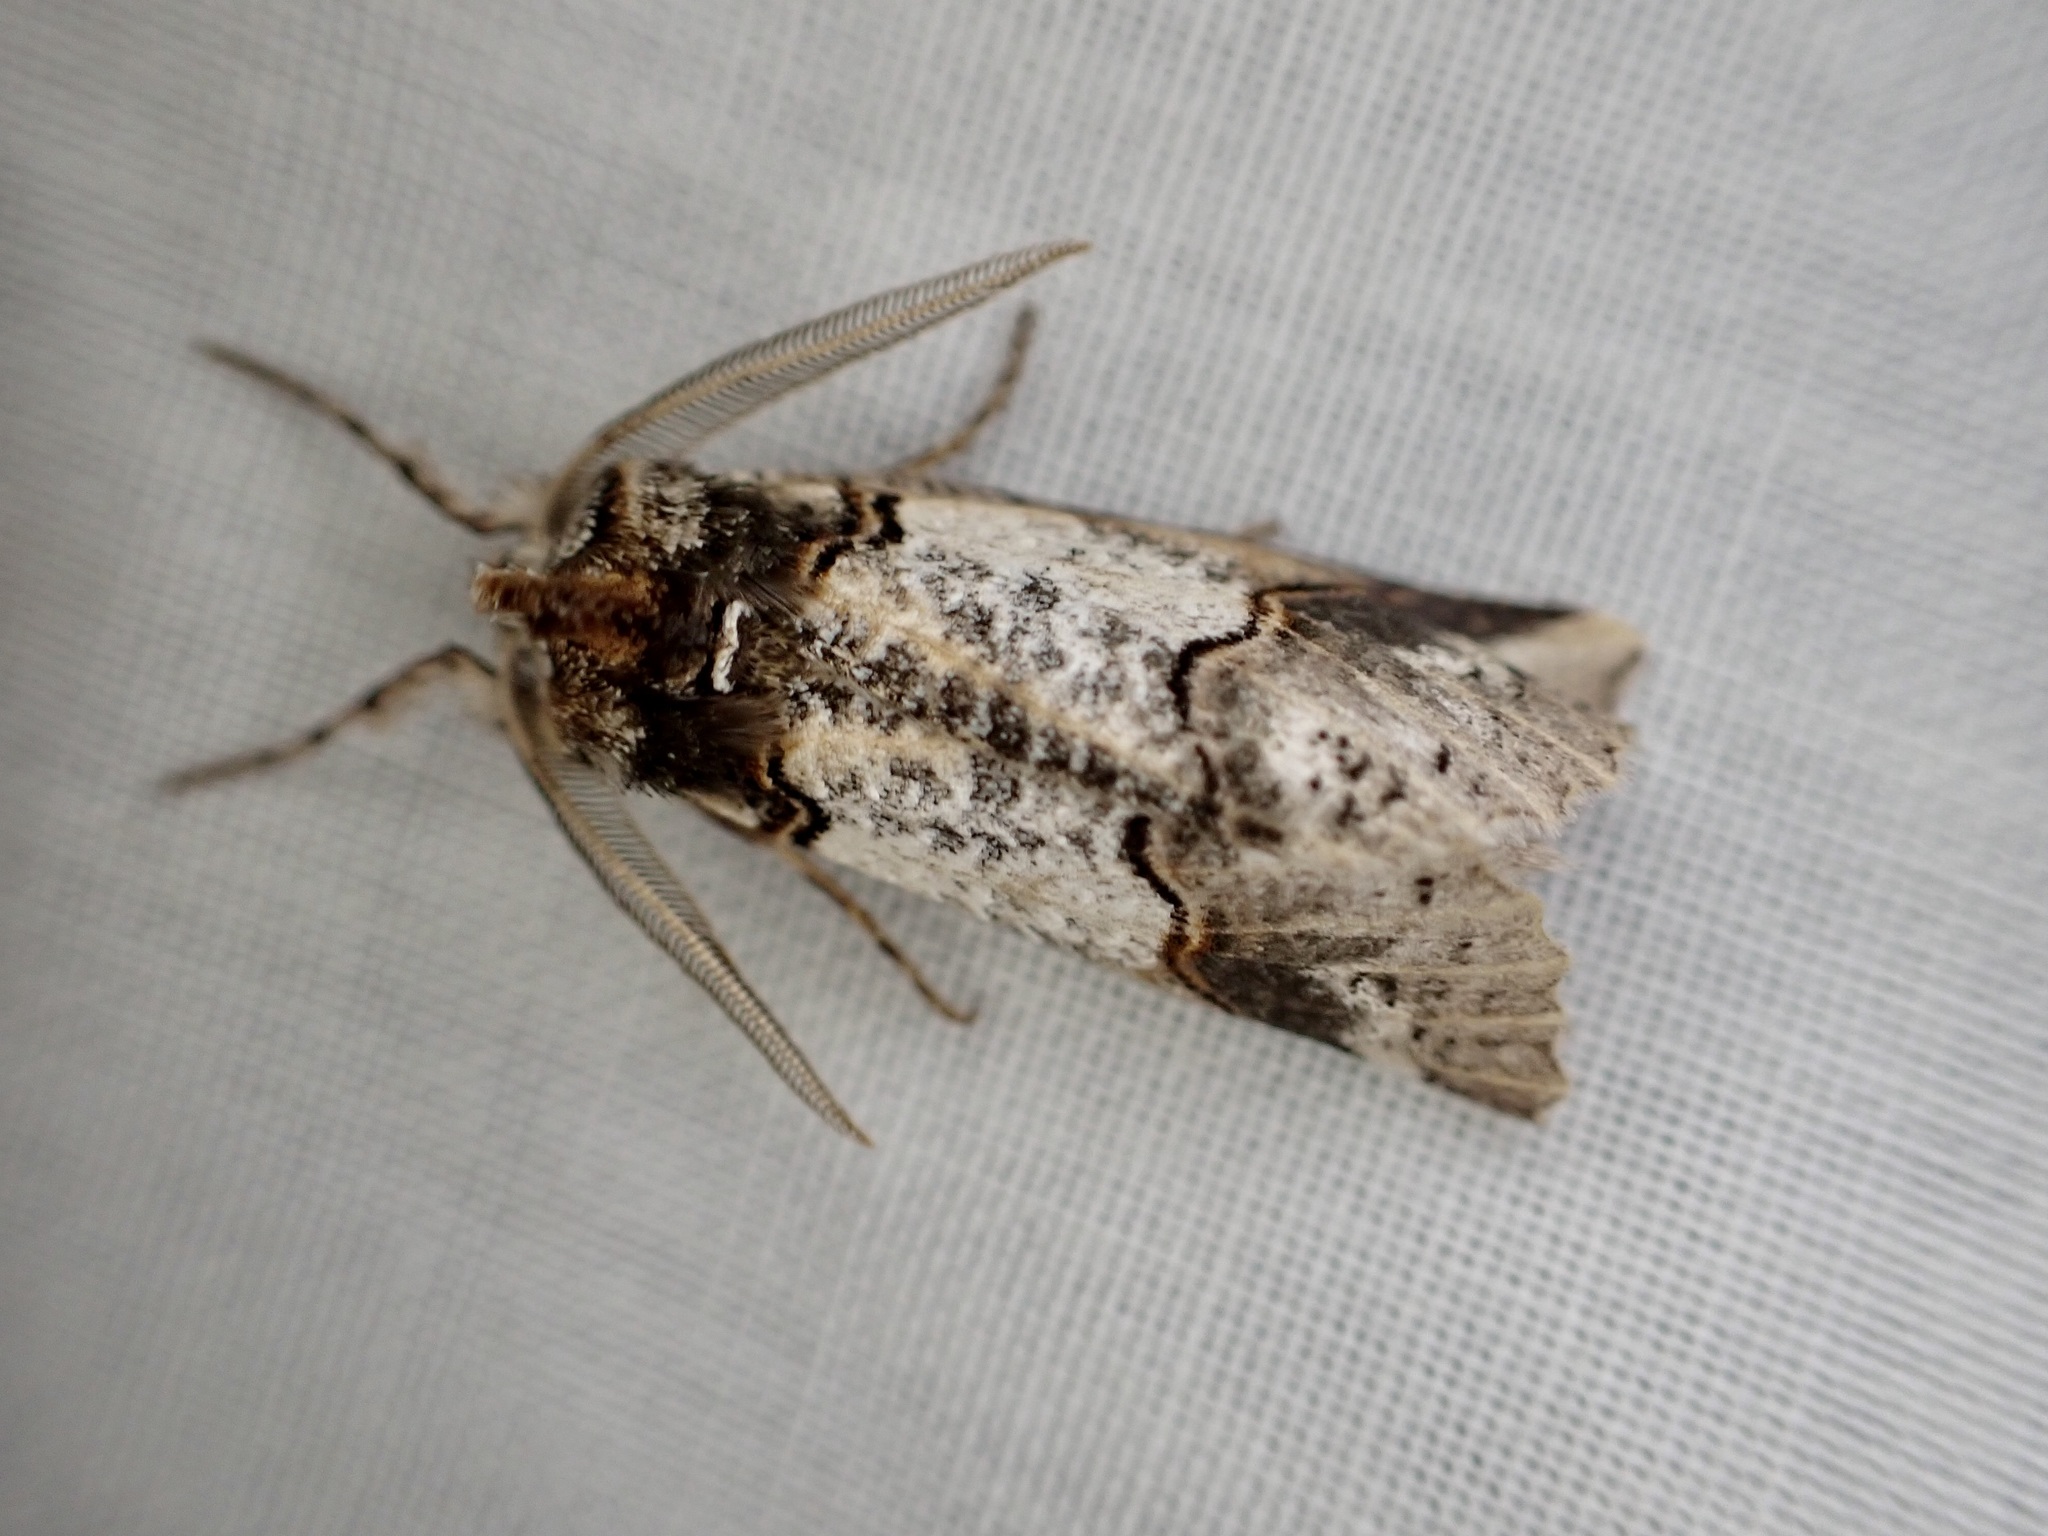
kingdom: Animalia
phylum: Arthropoda
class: Insecta
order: Lepidoptera
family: Geometridae
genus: Declana
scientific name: Declana
